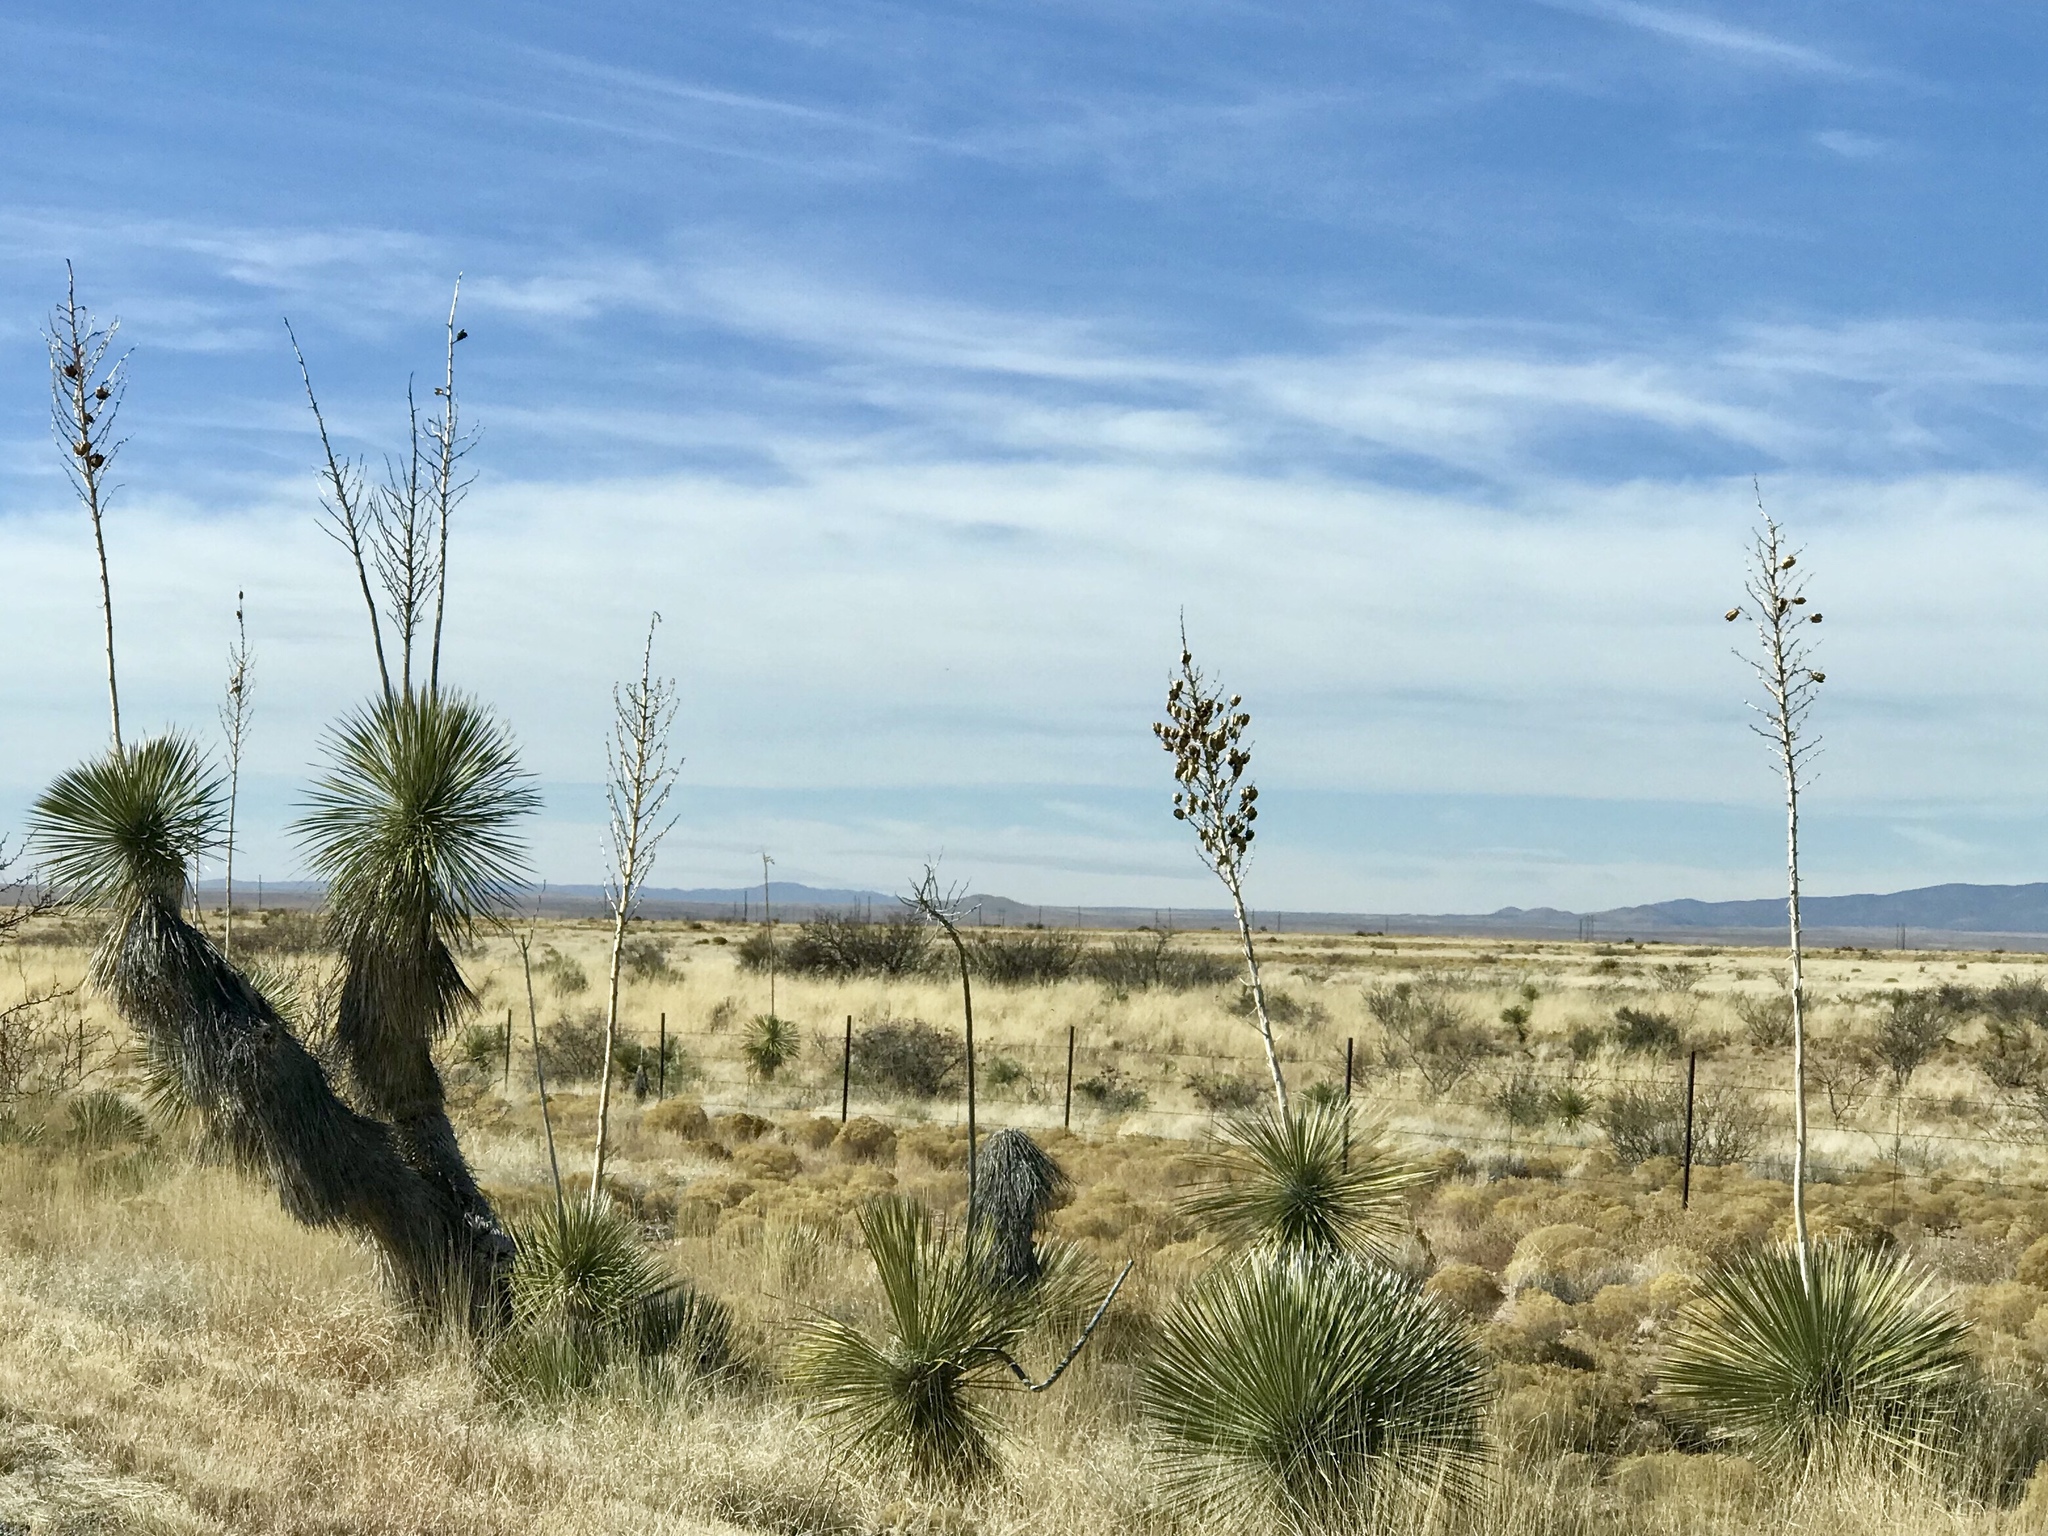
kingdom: Plantae
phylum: Tracheophyta
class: Liliopsida
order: Asparagales
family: Asparagaceae
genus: Yucca
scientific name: Yucca elata
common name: Palmella
